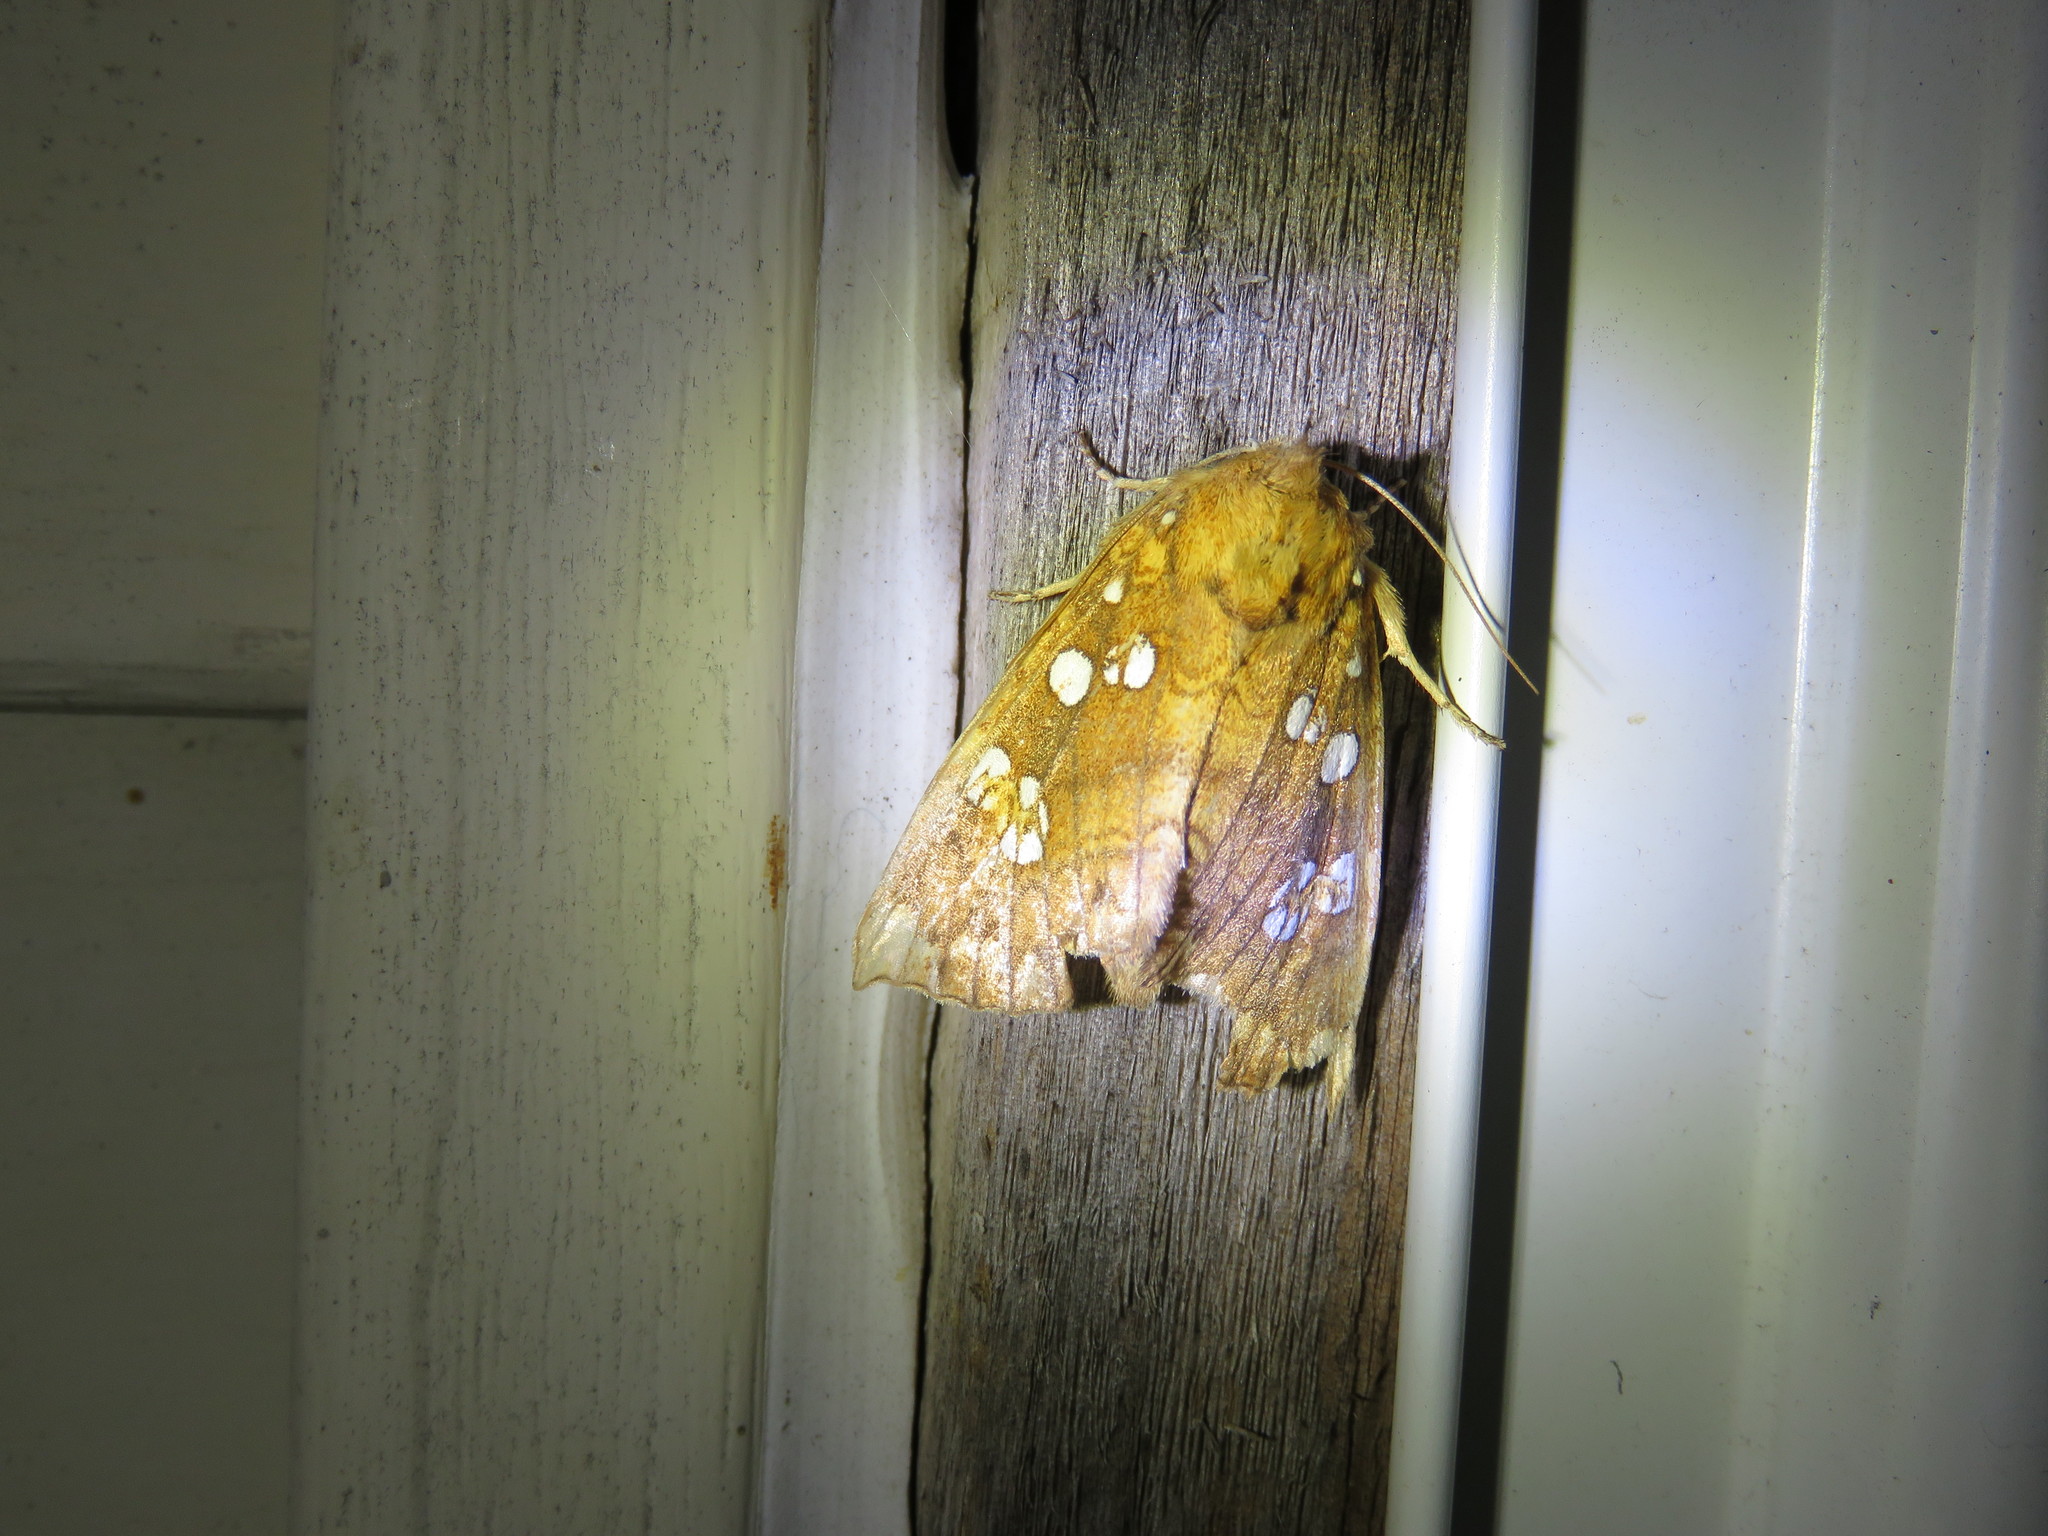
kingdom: Animalia
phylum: Arthropoda
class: Insecta
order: Lepidoptera
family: Noctuidae
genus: Papaipema
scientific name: Papaipema furcata
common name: Ash tip borer moth
